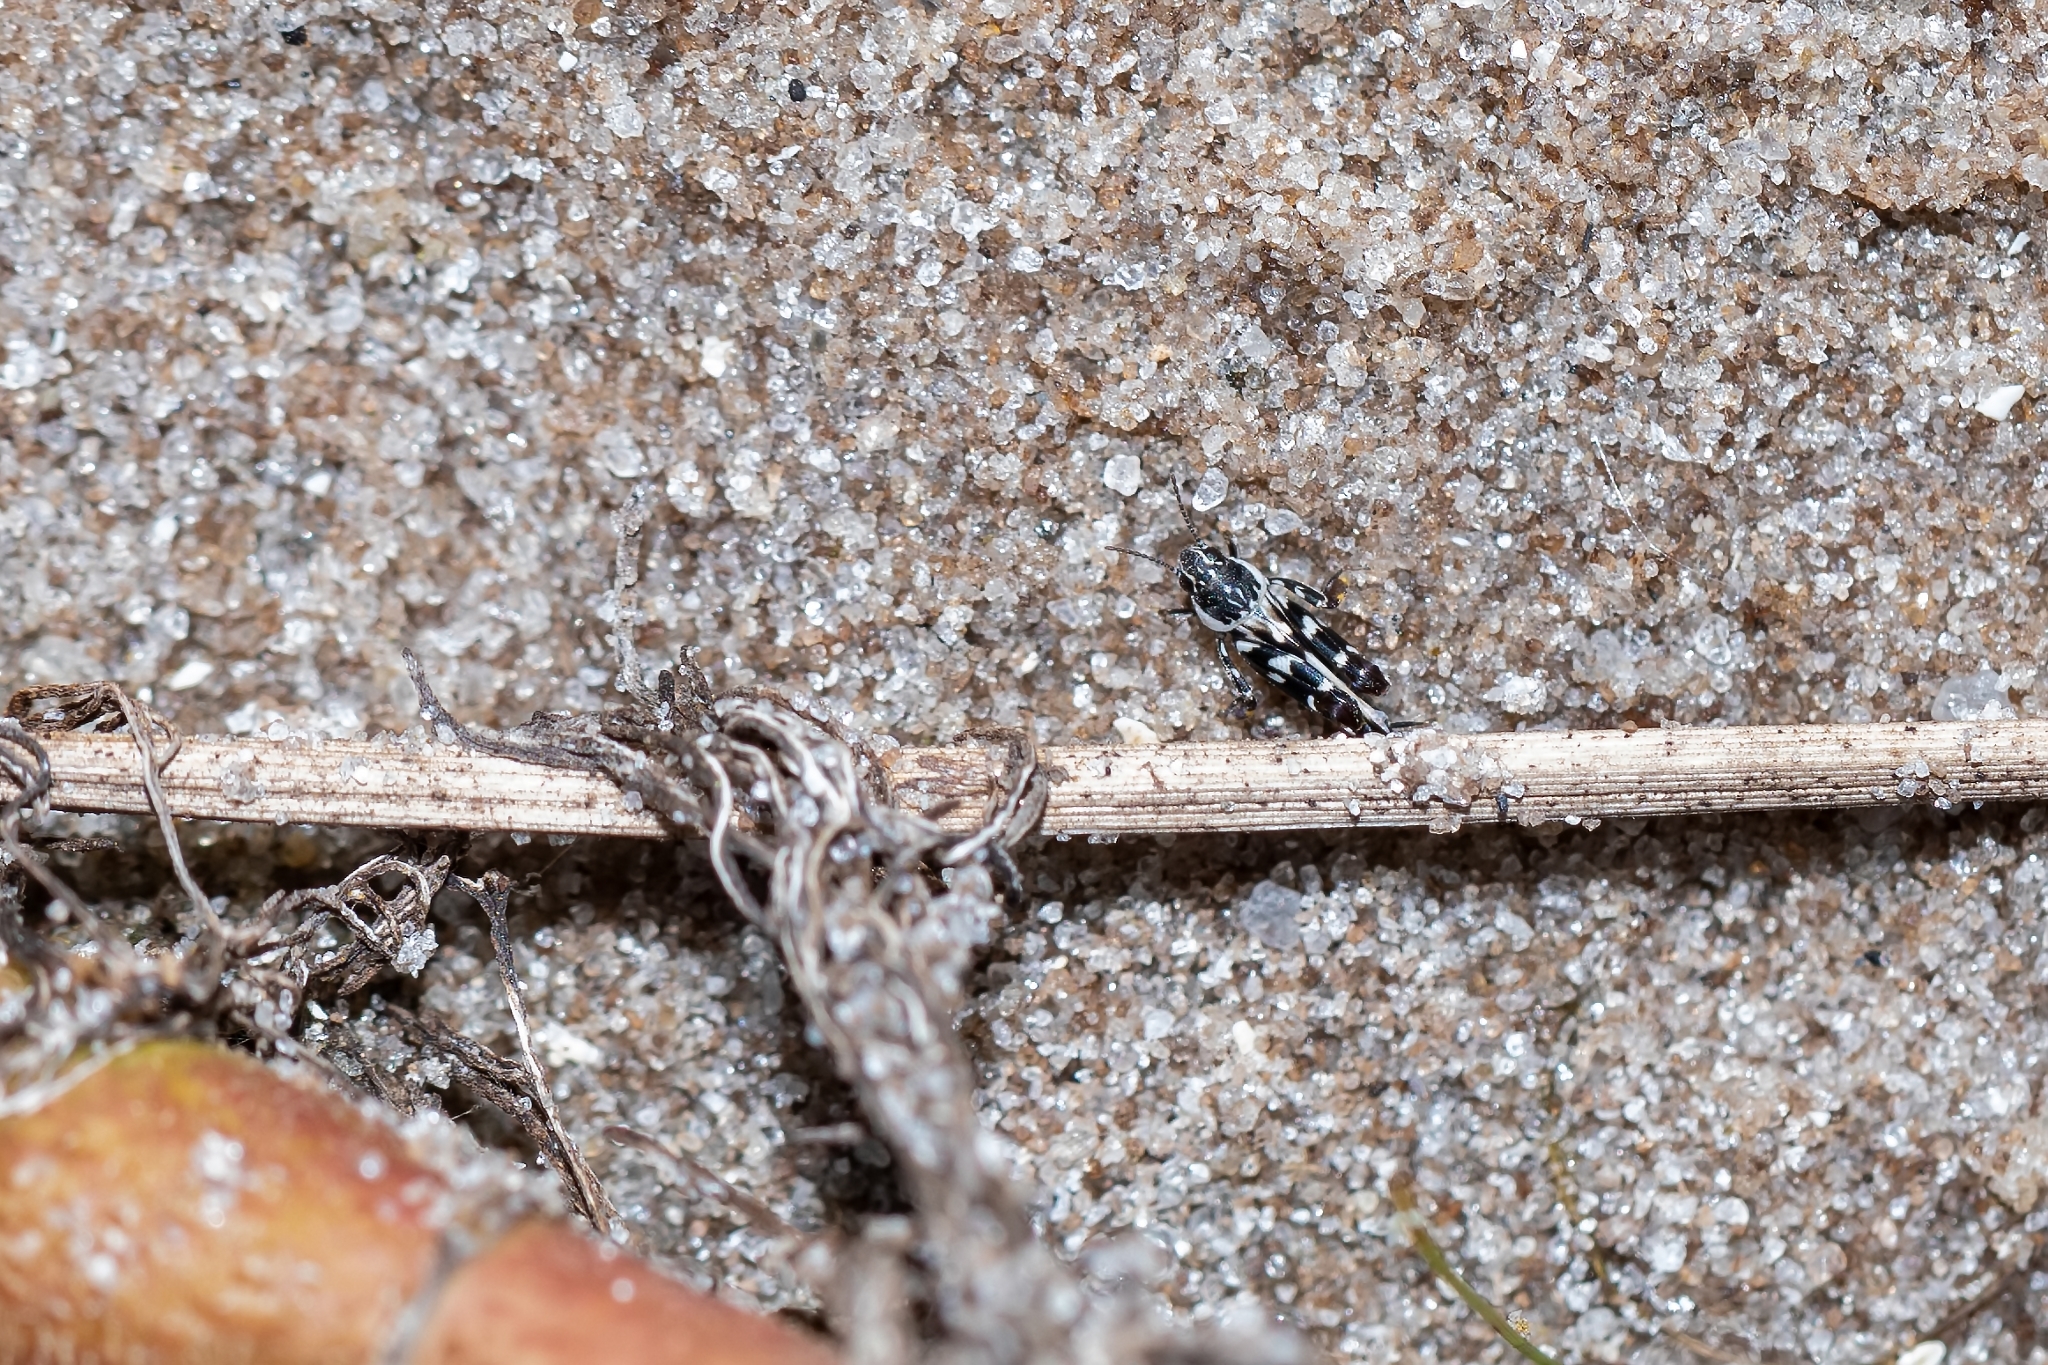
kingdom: Animalia
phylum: Arthropoda
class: Insecta
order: Orthoptera
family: Tridactylidae
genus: Ellipes
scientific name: Ellipes gurneyi
